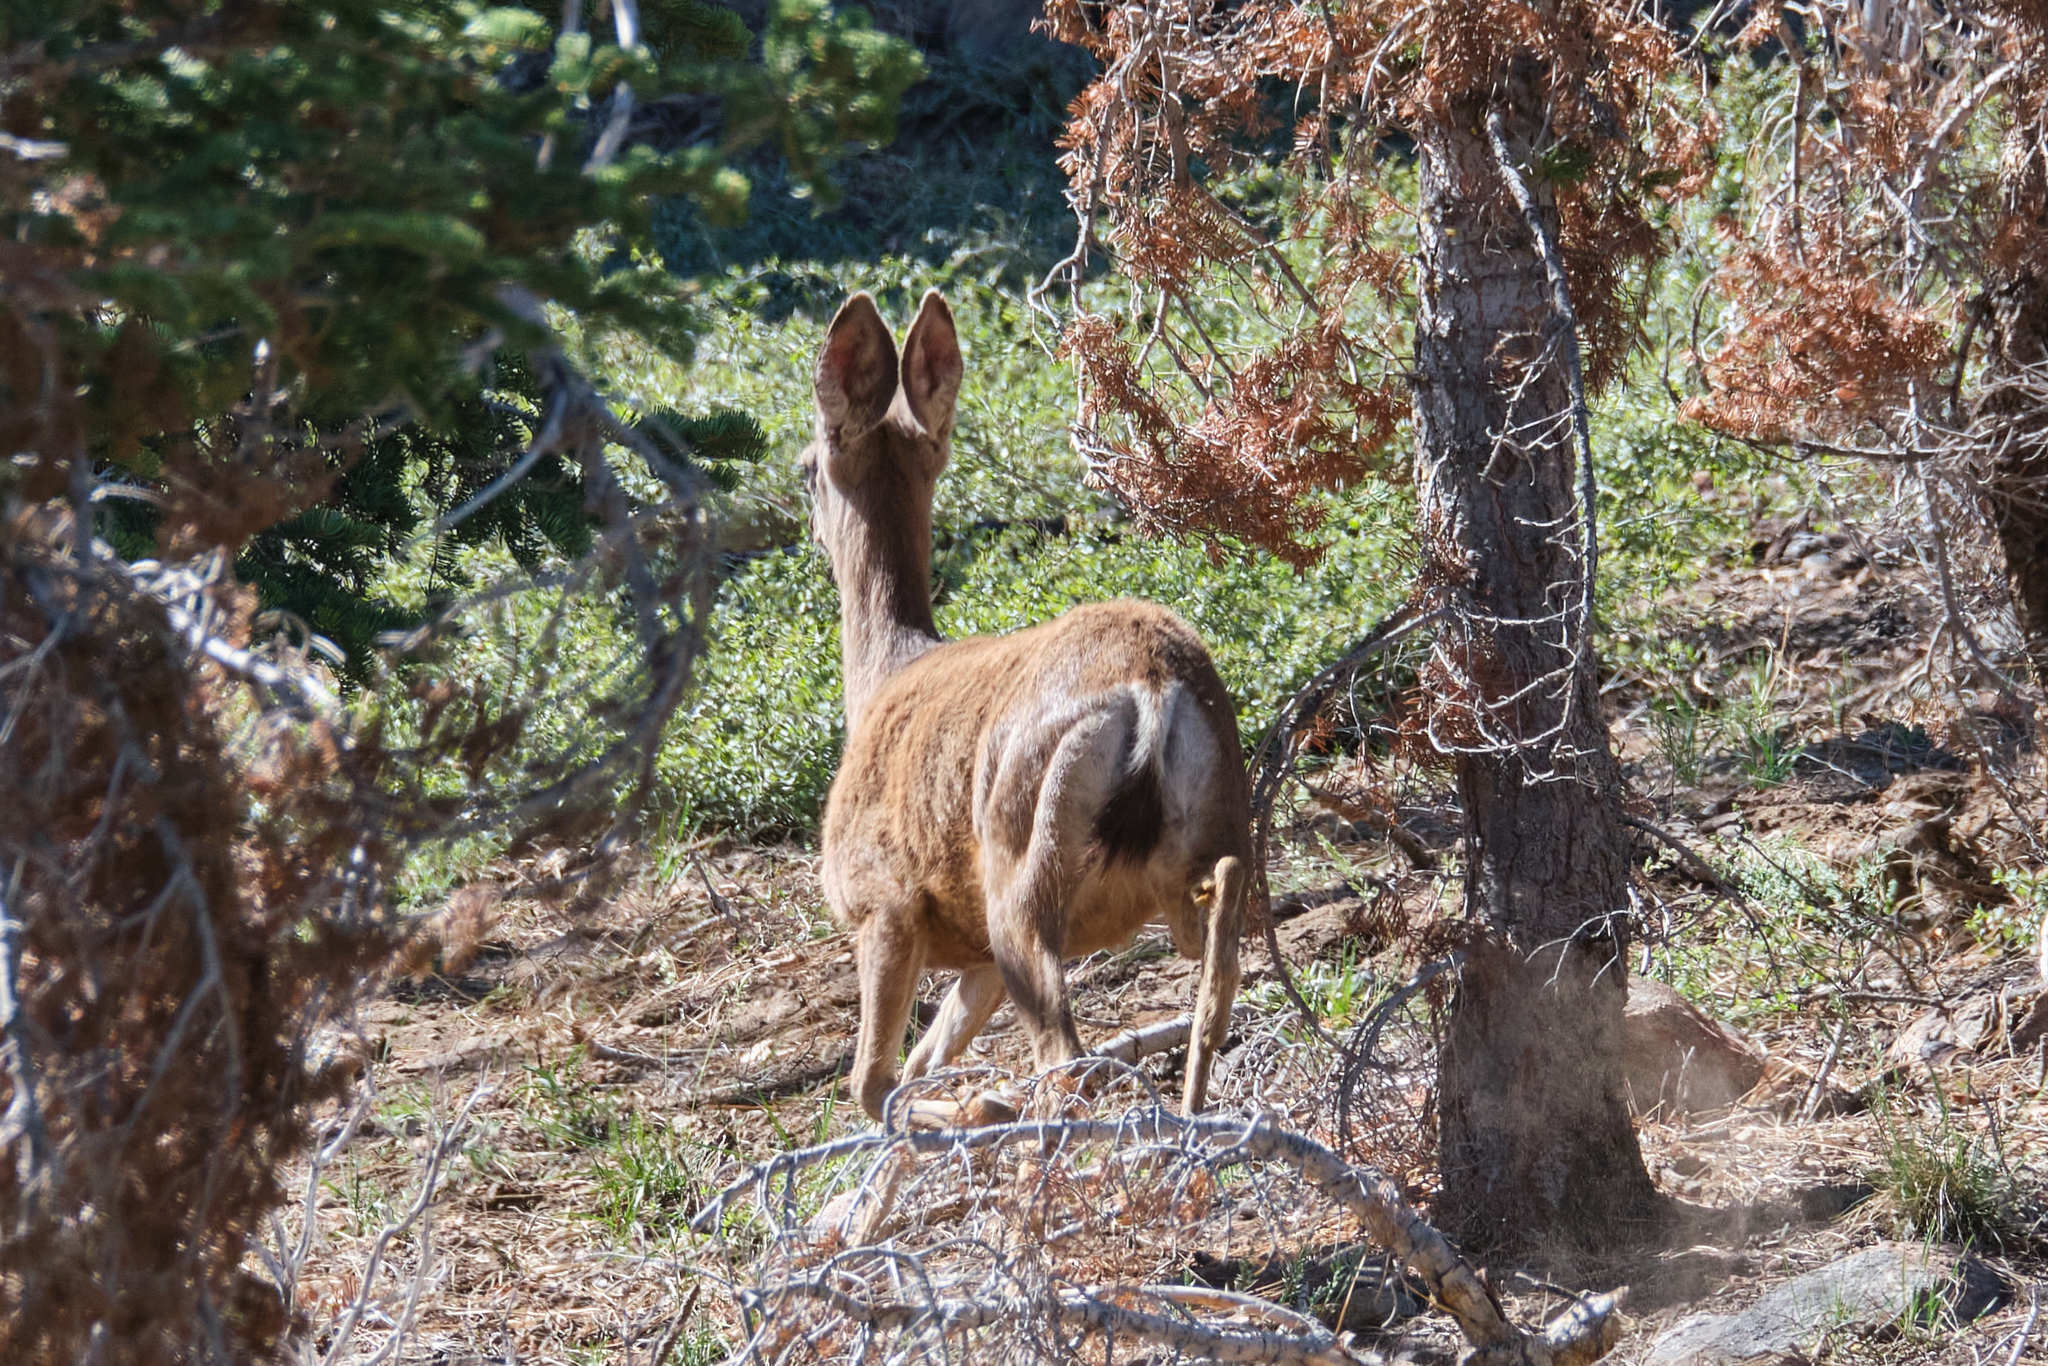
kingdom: Animalia
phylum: Chordata
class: Mammalia
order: Artiodactyla
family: Cervidae
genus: Odocoileus
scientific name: Odocoileus hemionus
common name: Mule deer
